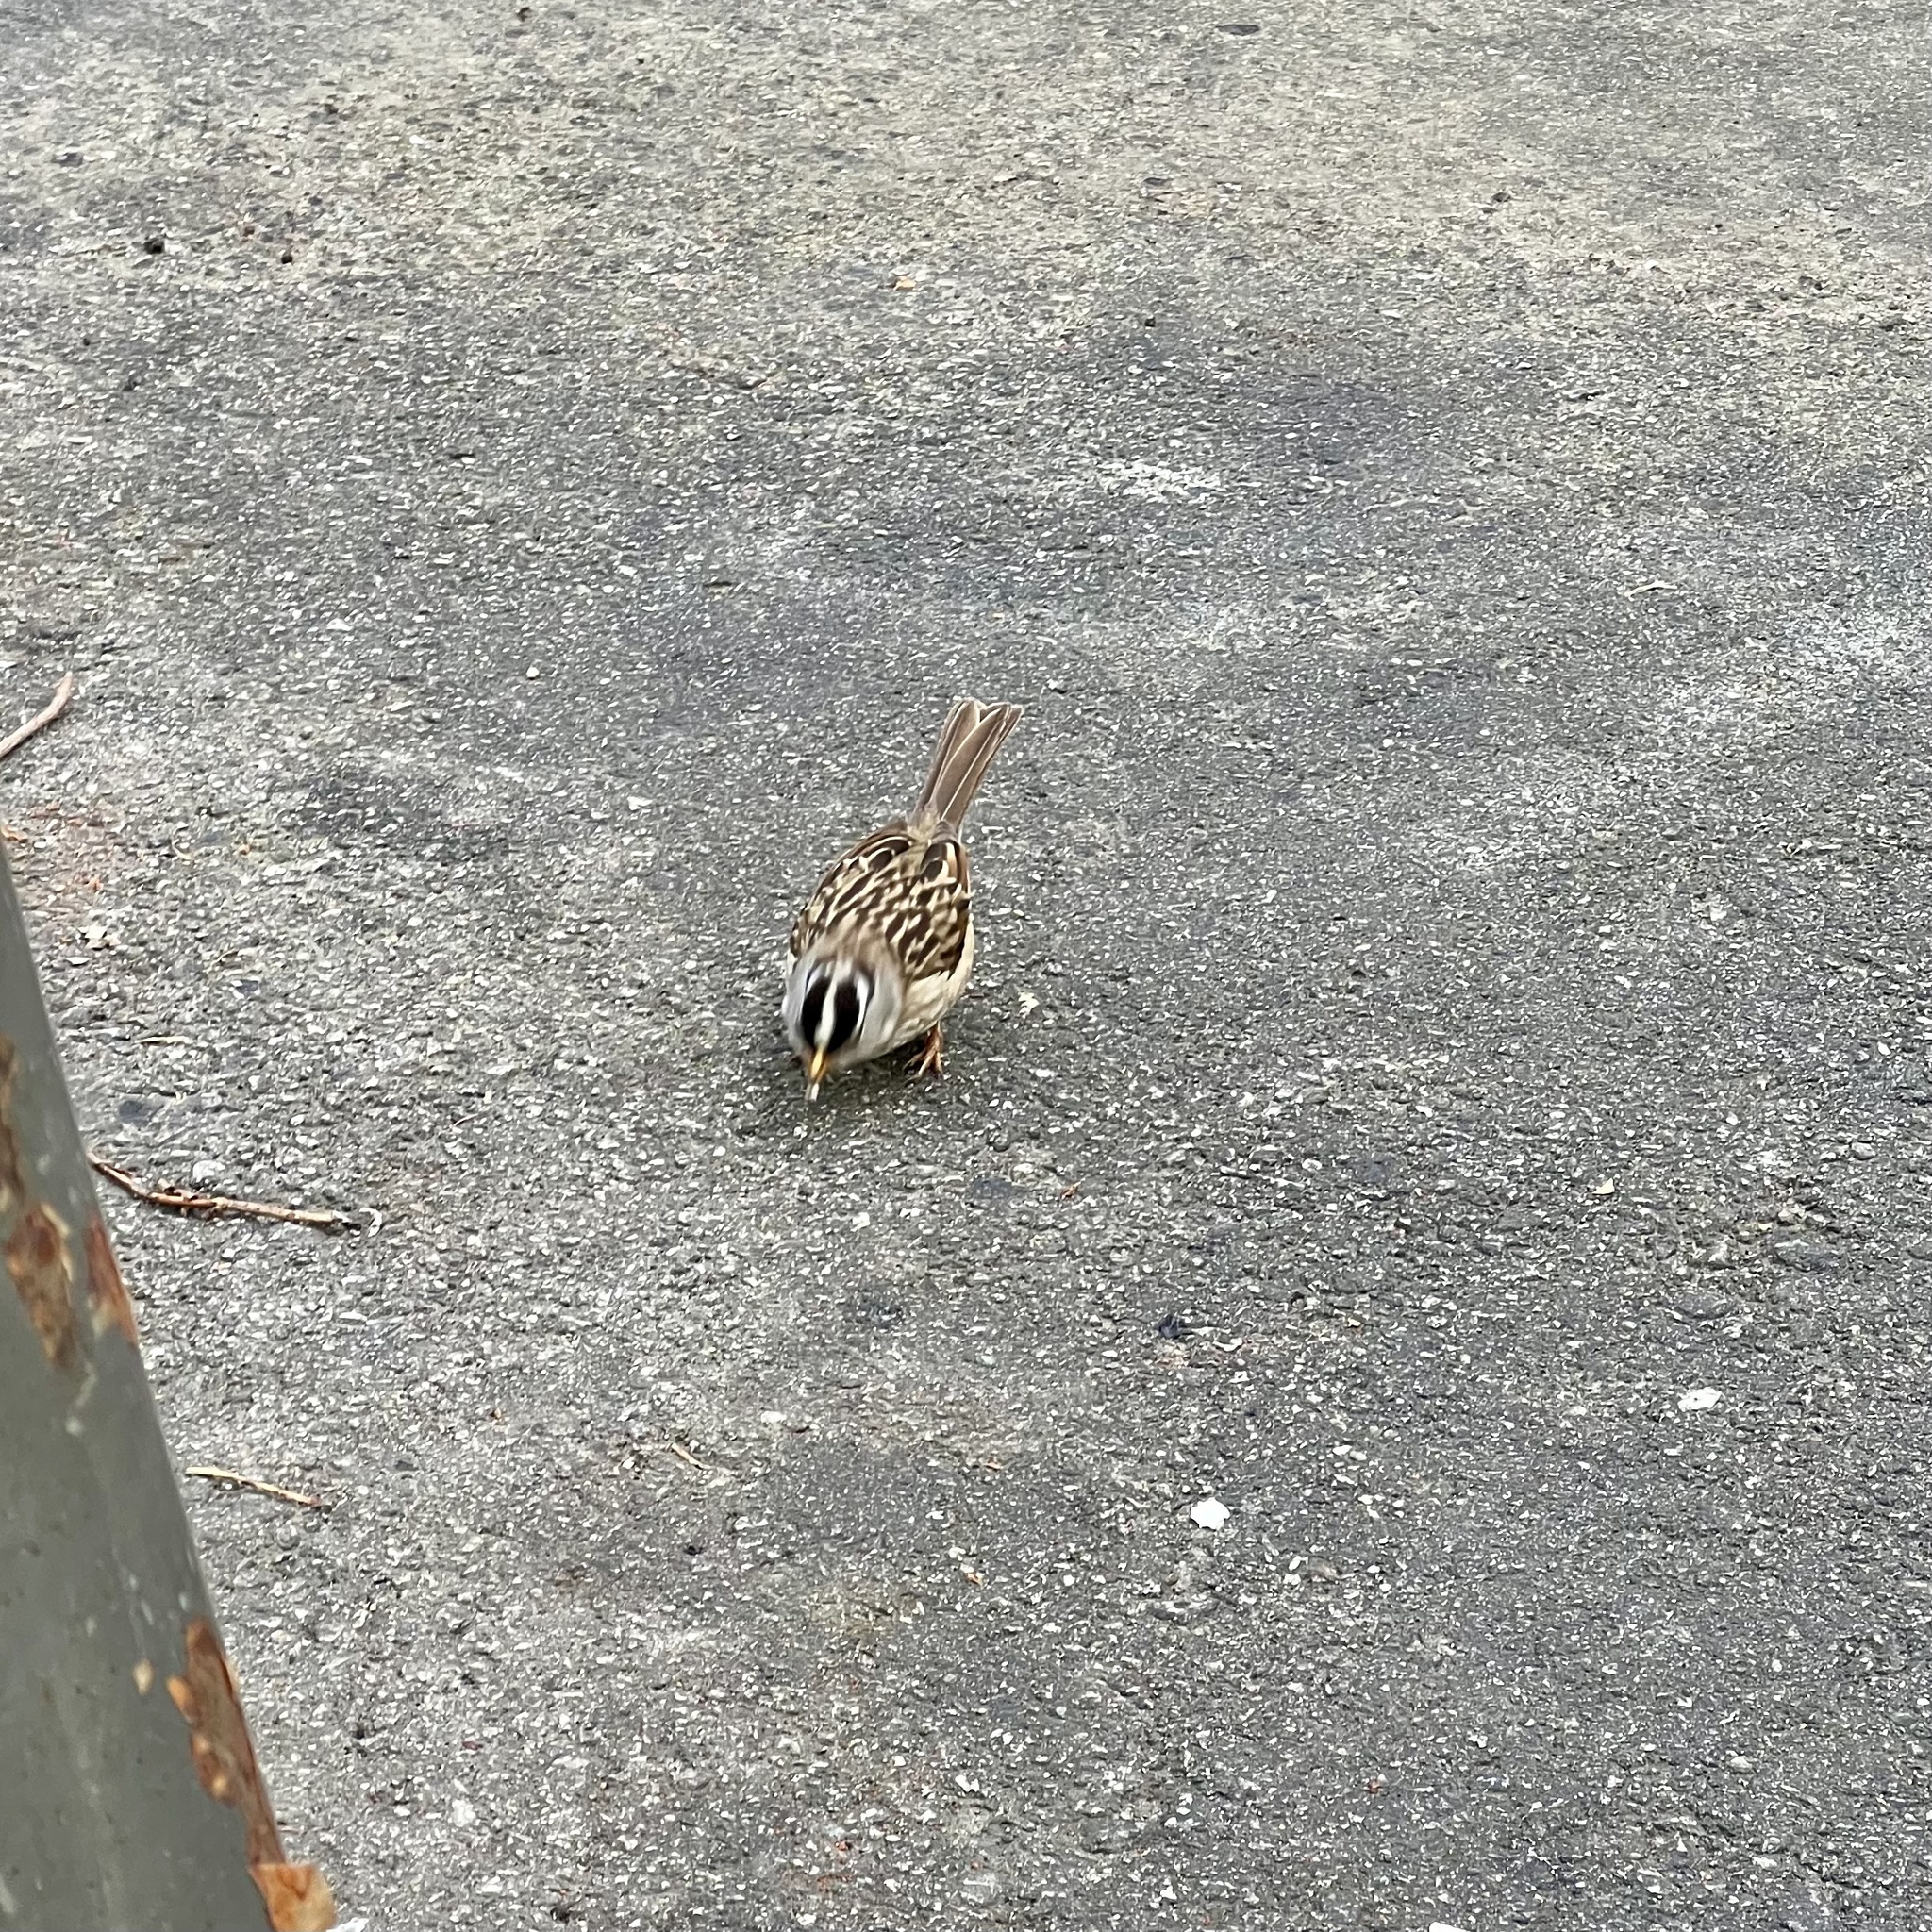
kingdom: Animalia
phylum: Chordata
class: Aves
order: Passeriformes
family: Passerellidae
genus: Zonotrichia
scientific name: Zonotrichia leucophrys
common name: White-crowned sparrow
